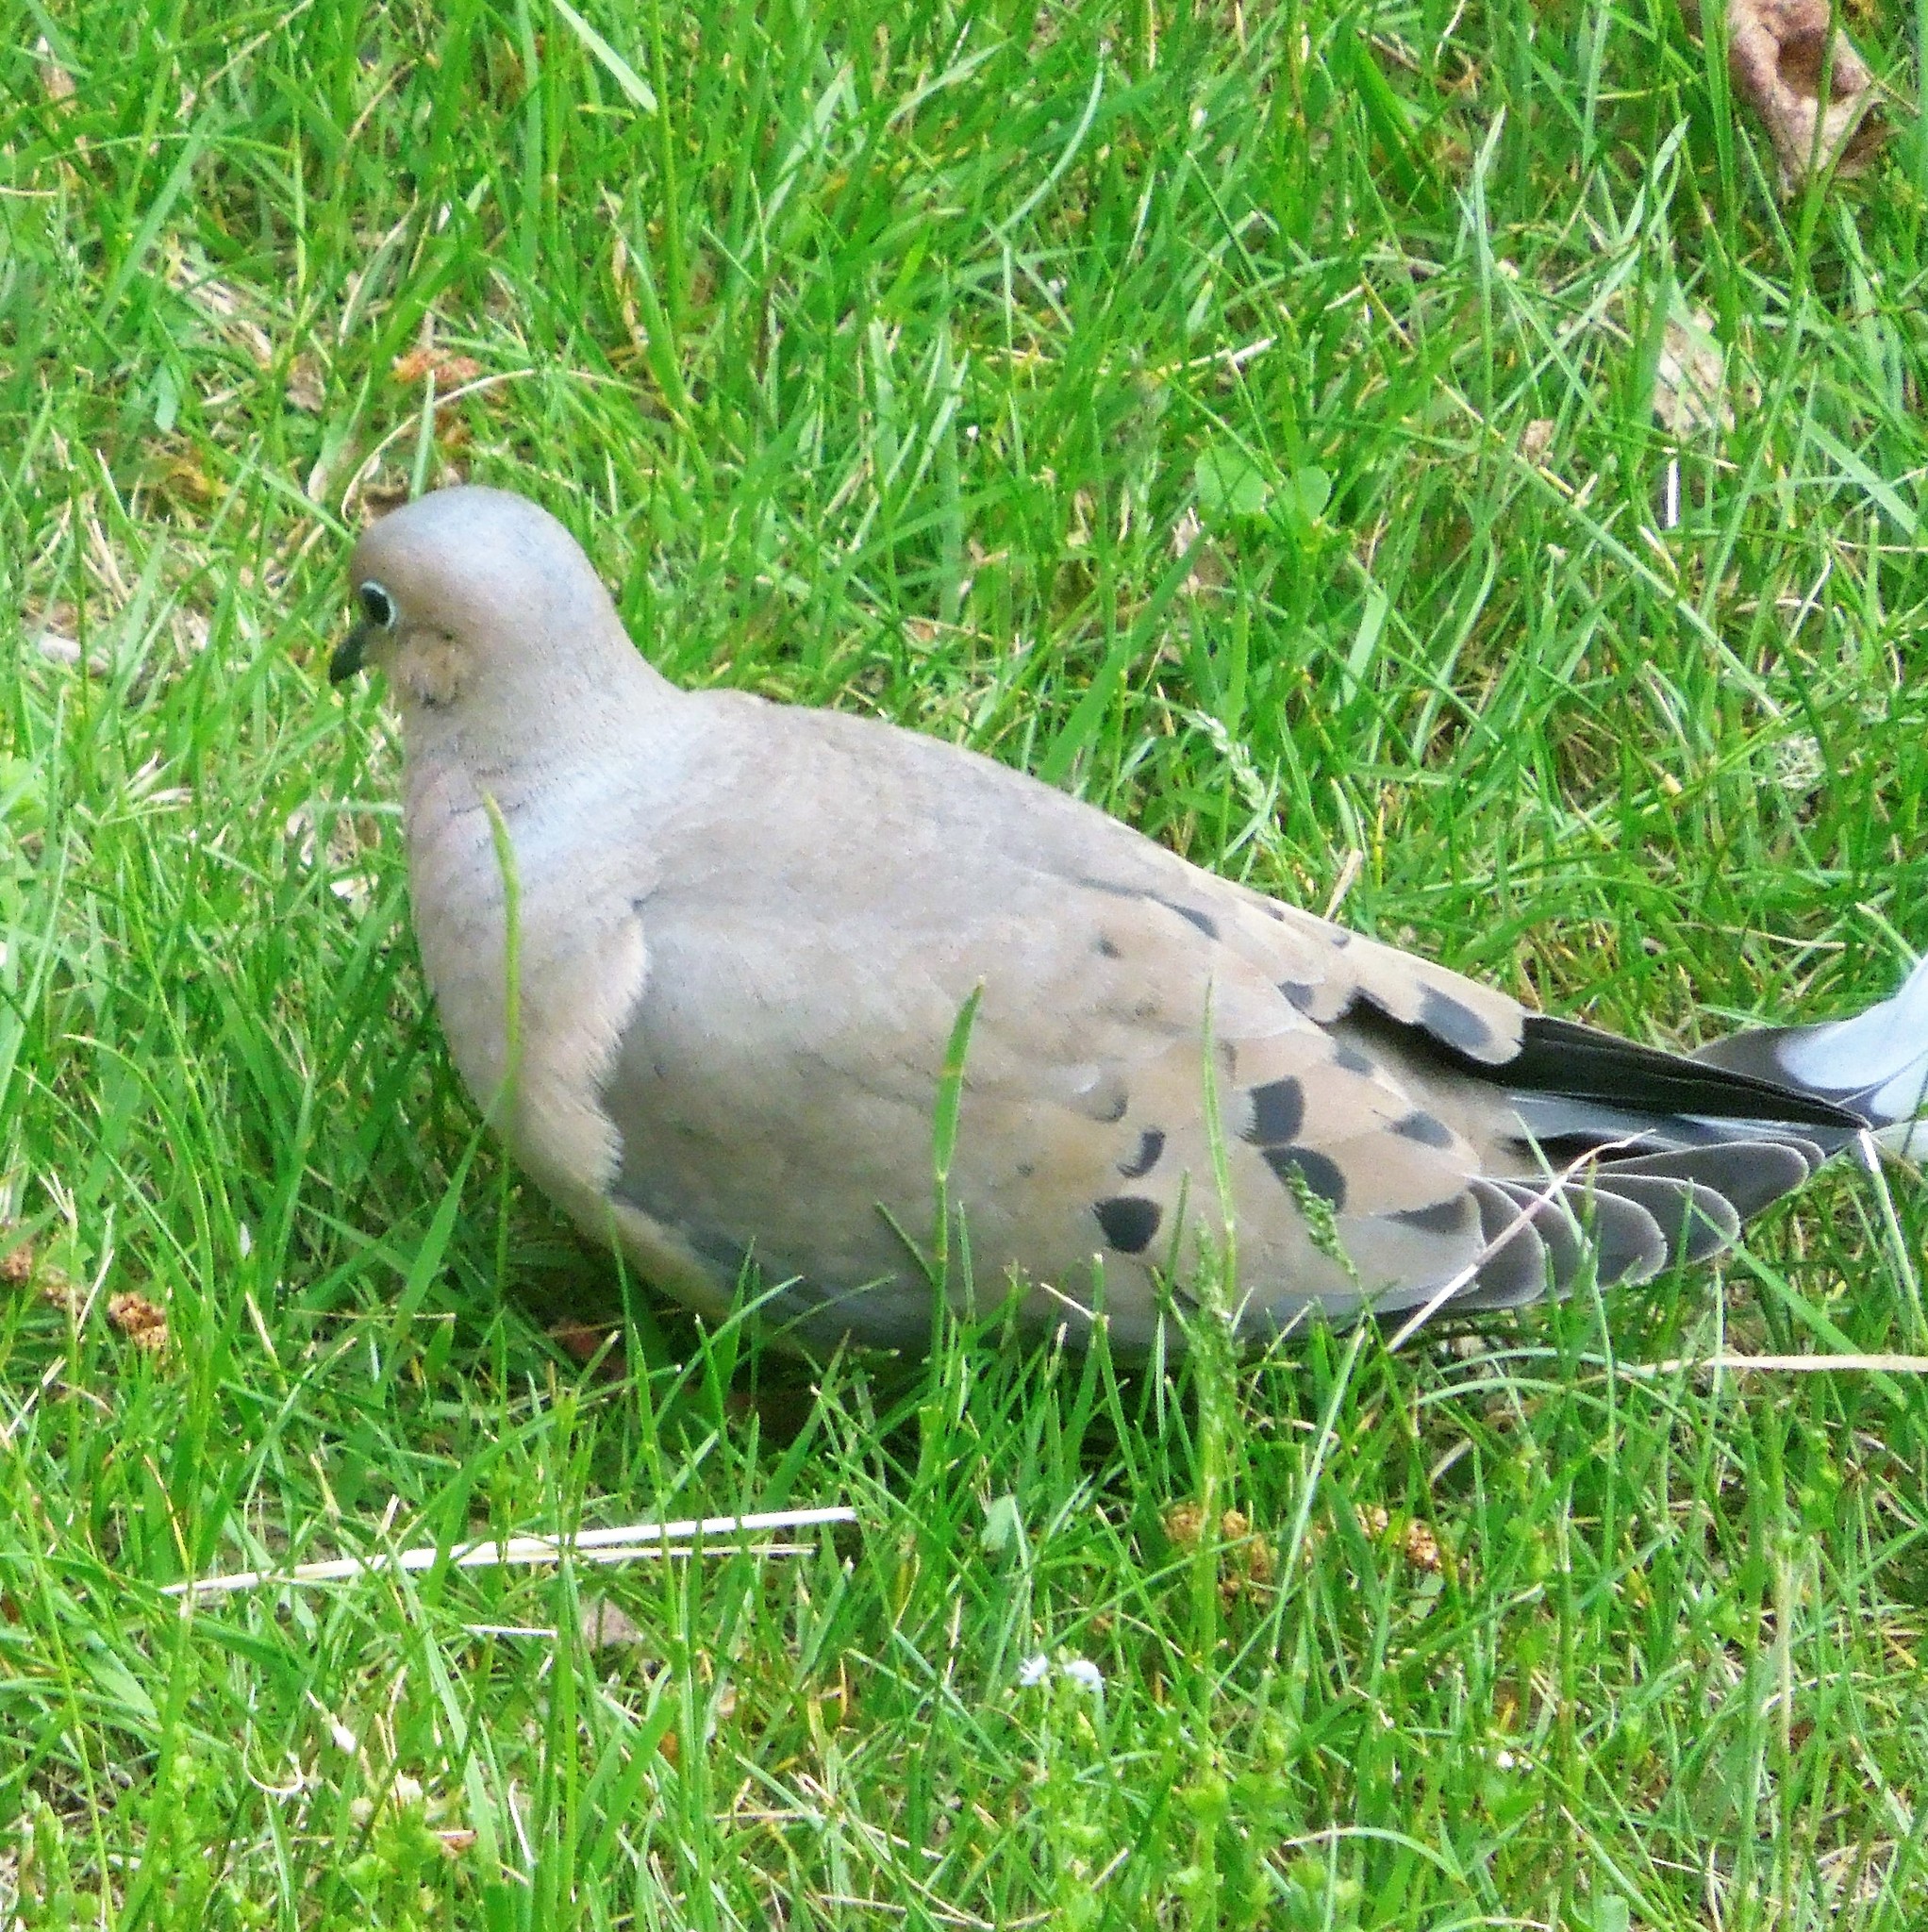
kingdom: Animalia
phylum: Chordata
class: Aves
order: Columbiformes
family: Columbidae
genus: Zenaida
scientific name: Zenaida macroura
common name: Mourning dove
